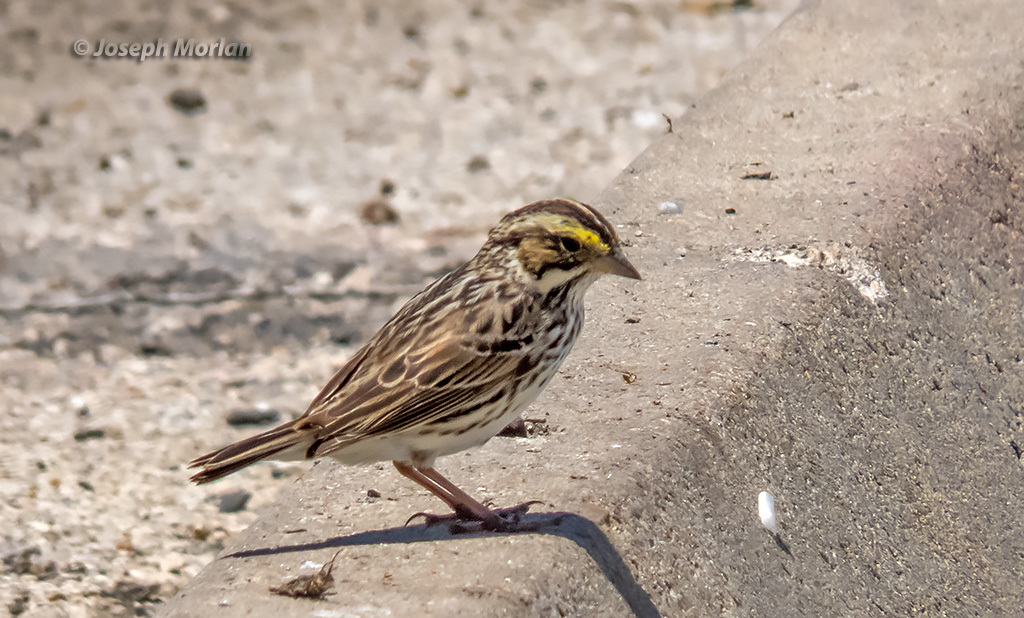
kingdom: Animalia
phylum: Chordata
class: Aves
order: Passeriformes
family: Passerellidae
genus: Passerculus
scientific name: Passerculus sandwichensis
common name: Savannah sparrow
